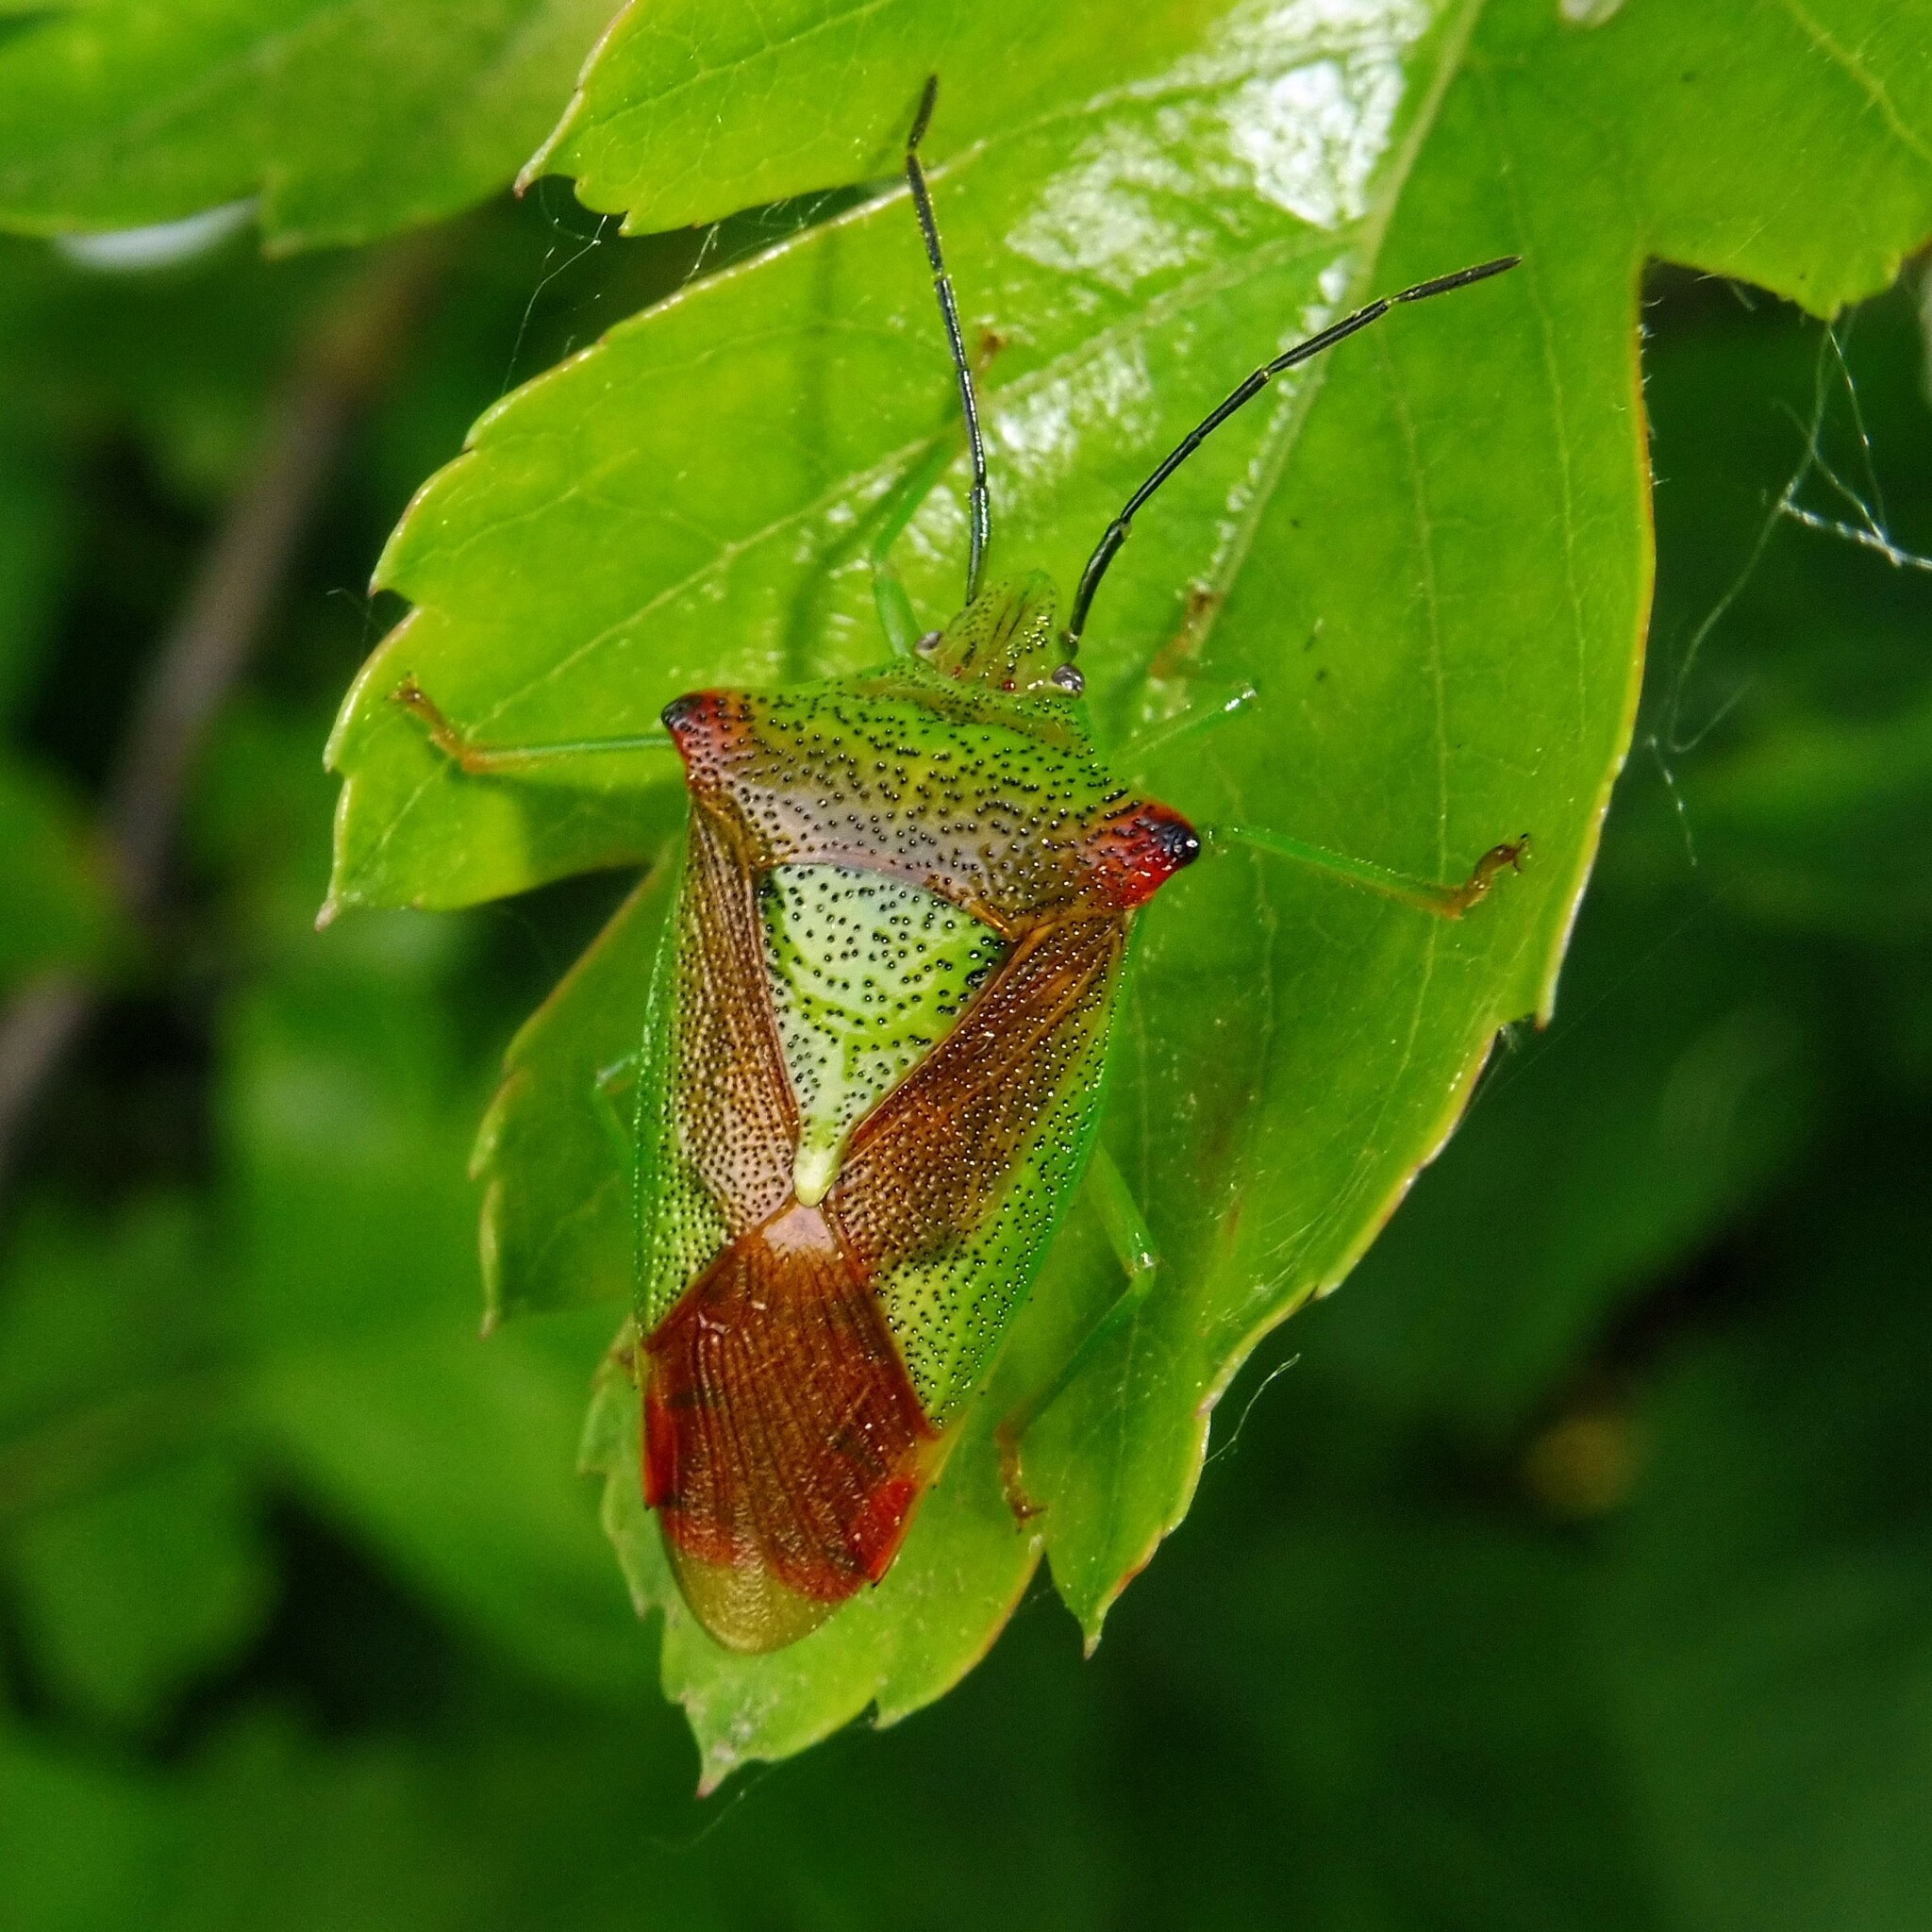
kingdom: Animalia
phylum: Arthropoda
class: Insecta
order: Hemiptera
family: Acanthosomatidae
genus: Acanthosoma
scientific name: Acanthosoma haemorrhoidale
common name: Hawthorn shieldbug
